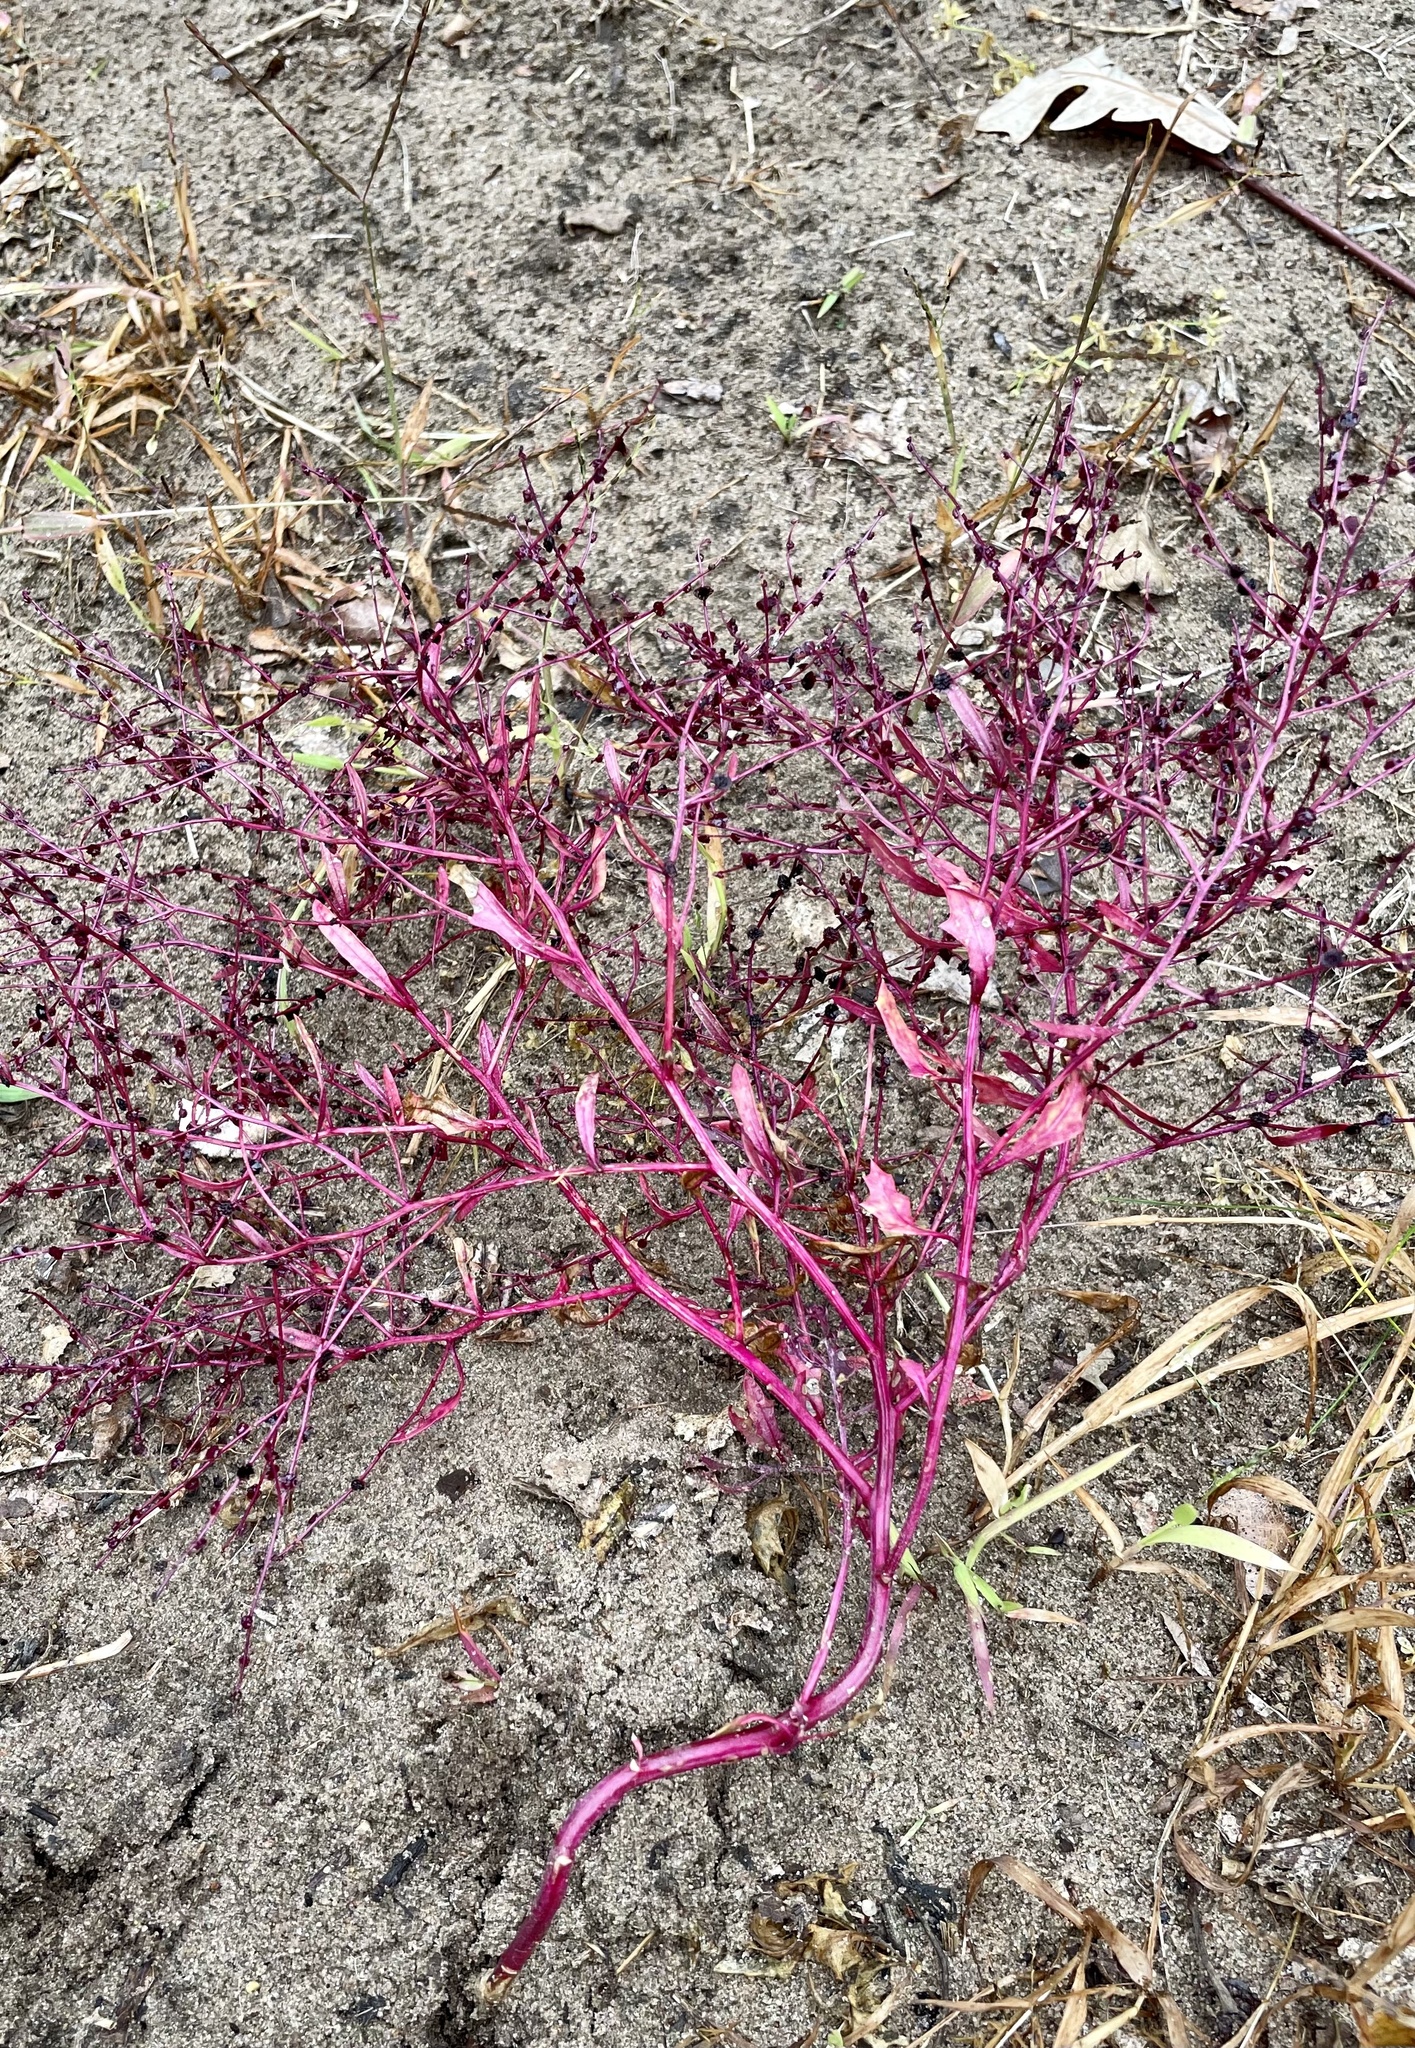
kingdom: Plantae
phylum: Tracheophyta
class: Magnoliopsida
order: Caryophyllales
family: Amaranthaceae
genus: Dysphania
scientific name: Dysphania atriplicifolia
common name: Plains tumbleweed
